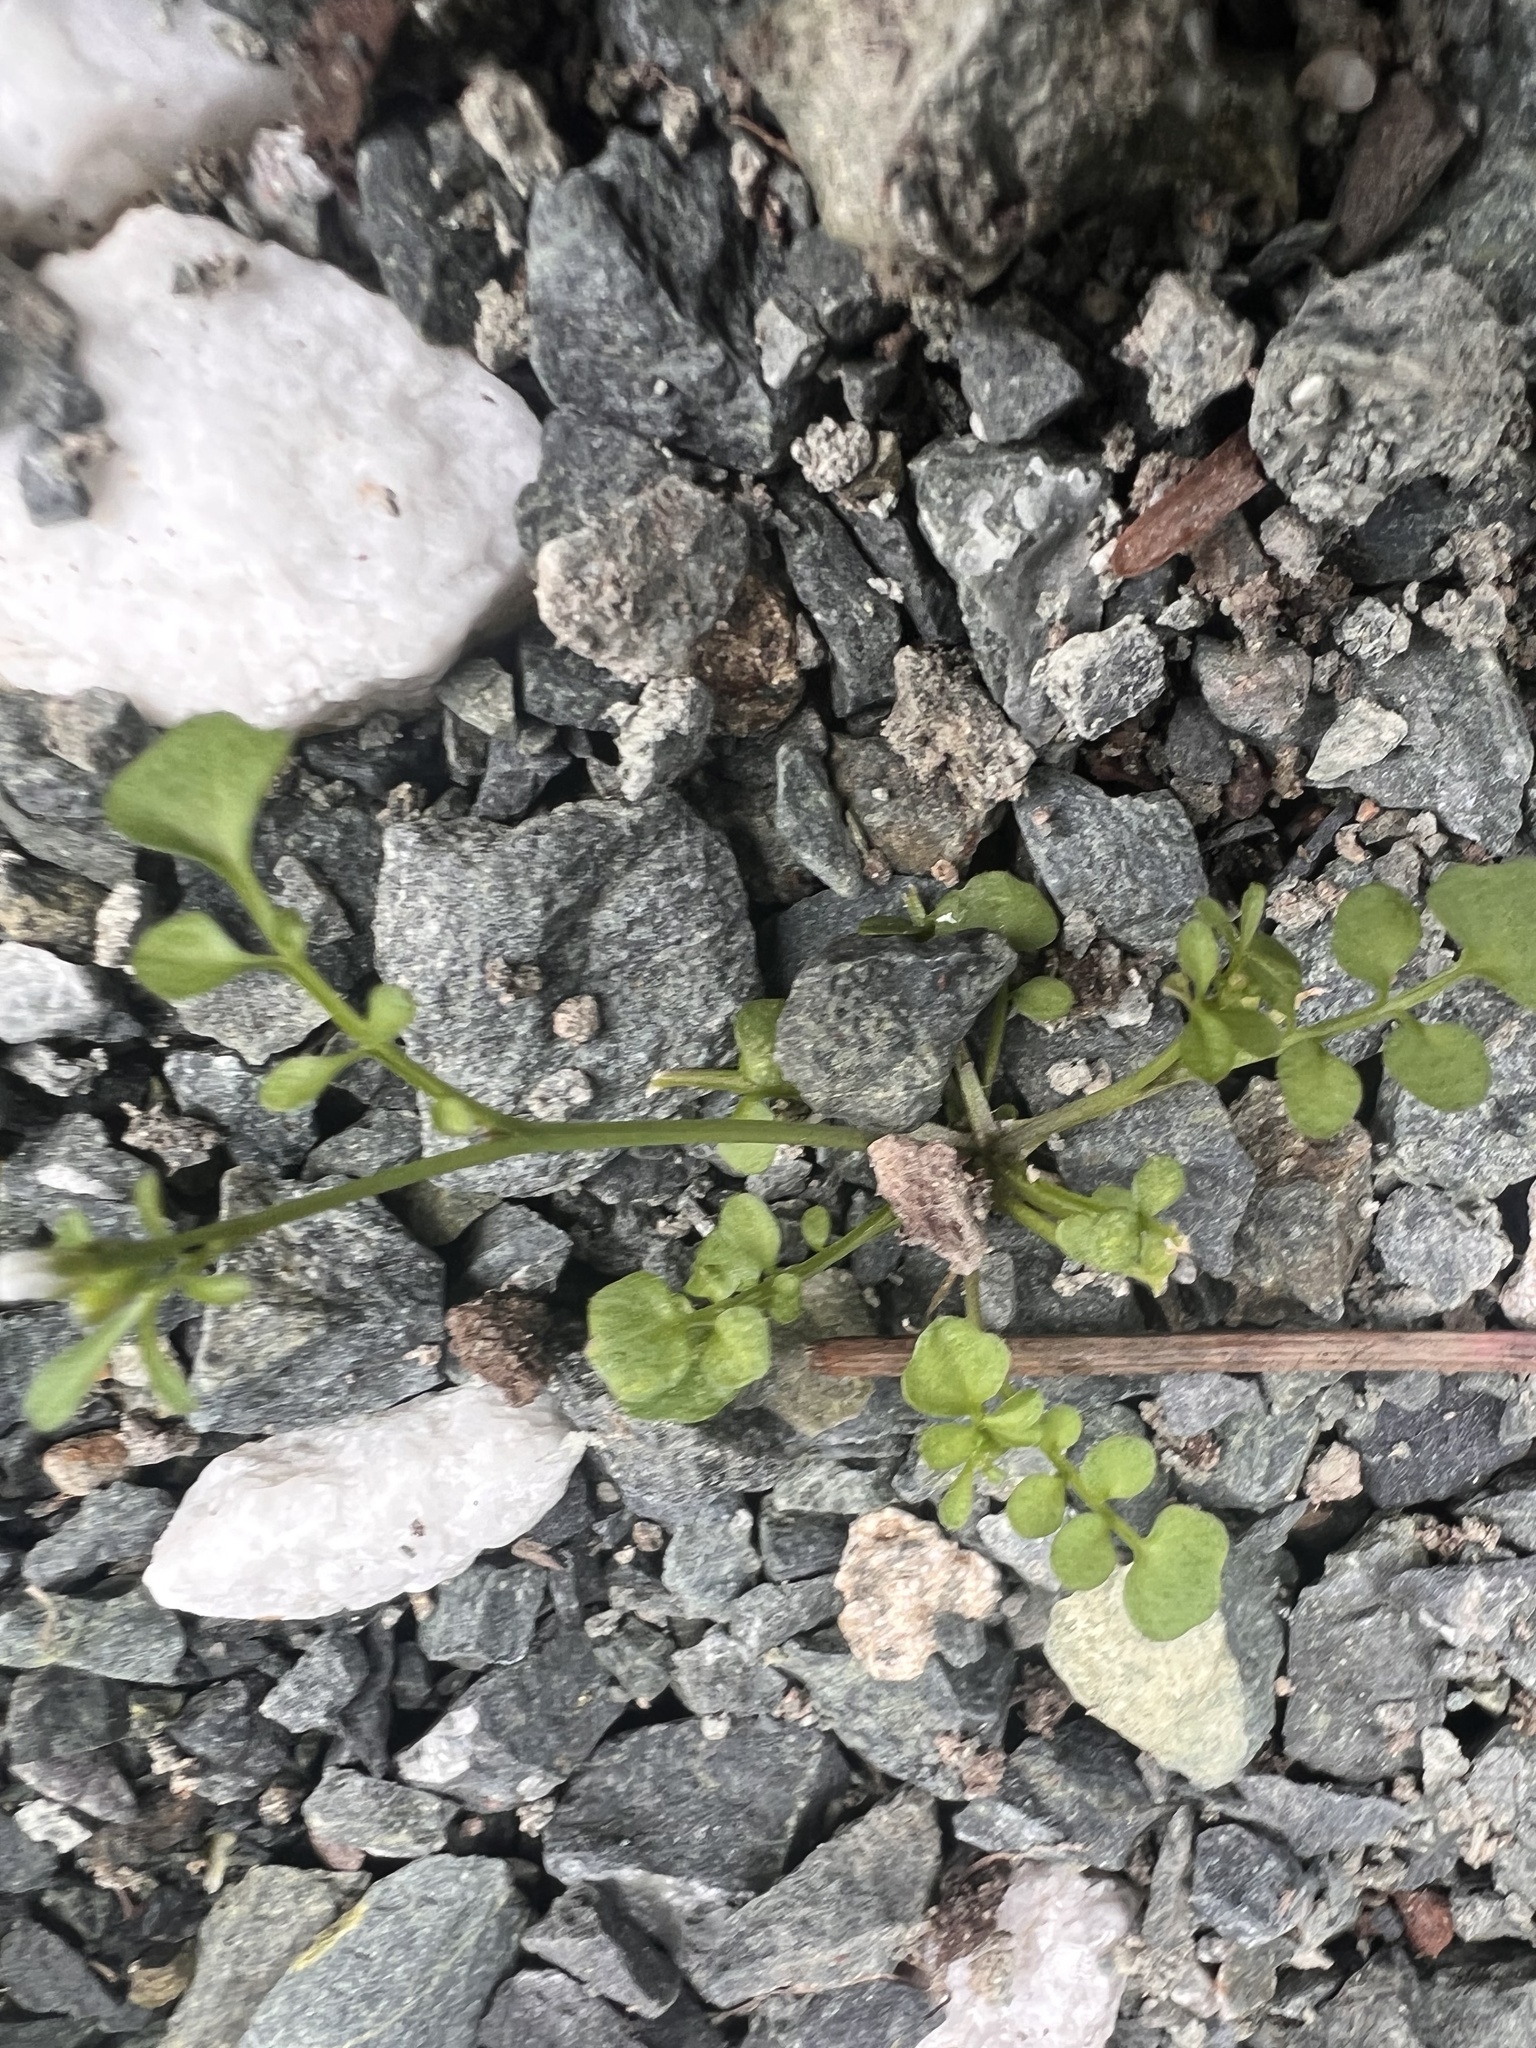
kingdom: Plantae
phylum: Tracheophyta
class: Magnoliopsida
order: Brassicales
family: Brassicaceae
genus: Cardamine
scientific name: Cardamine hirsuta
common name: Hairy bittercress
